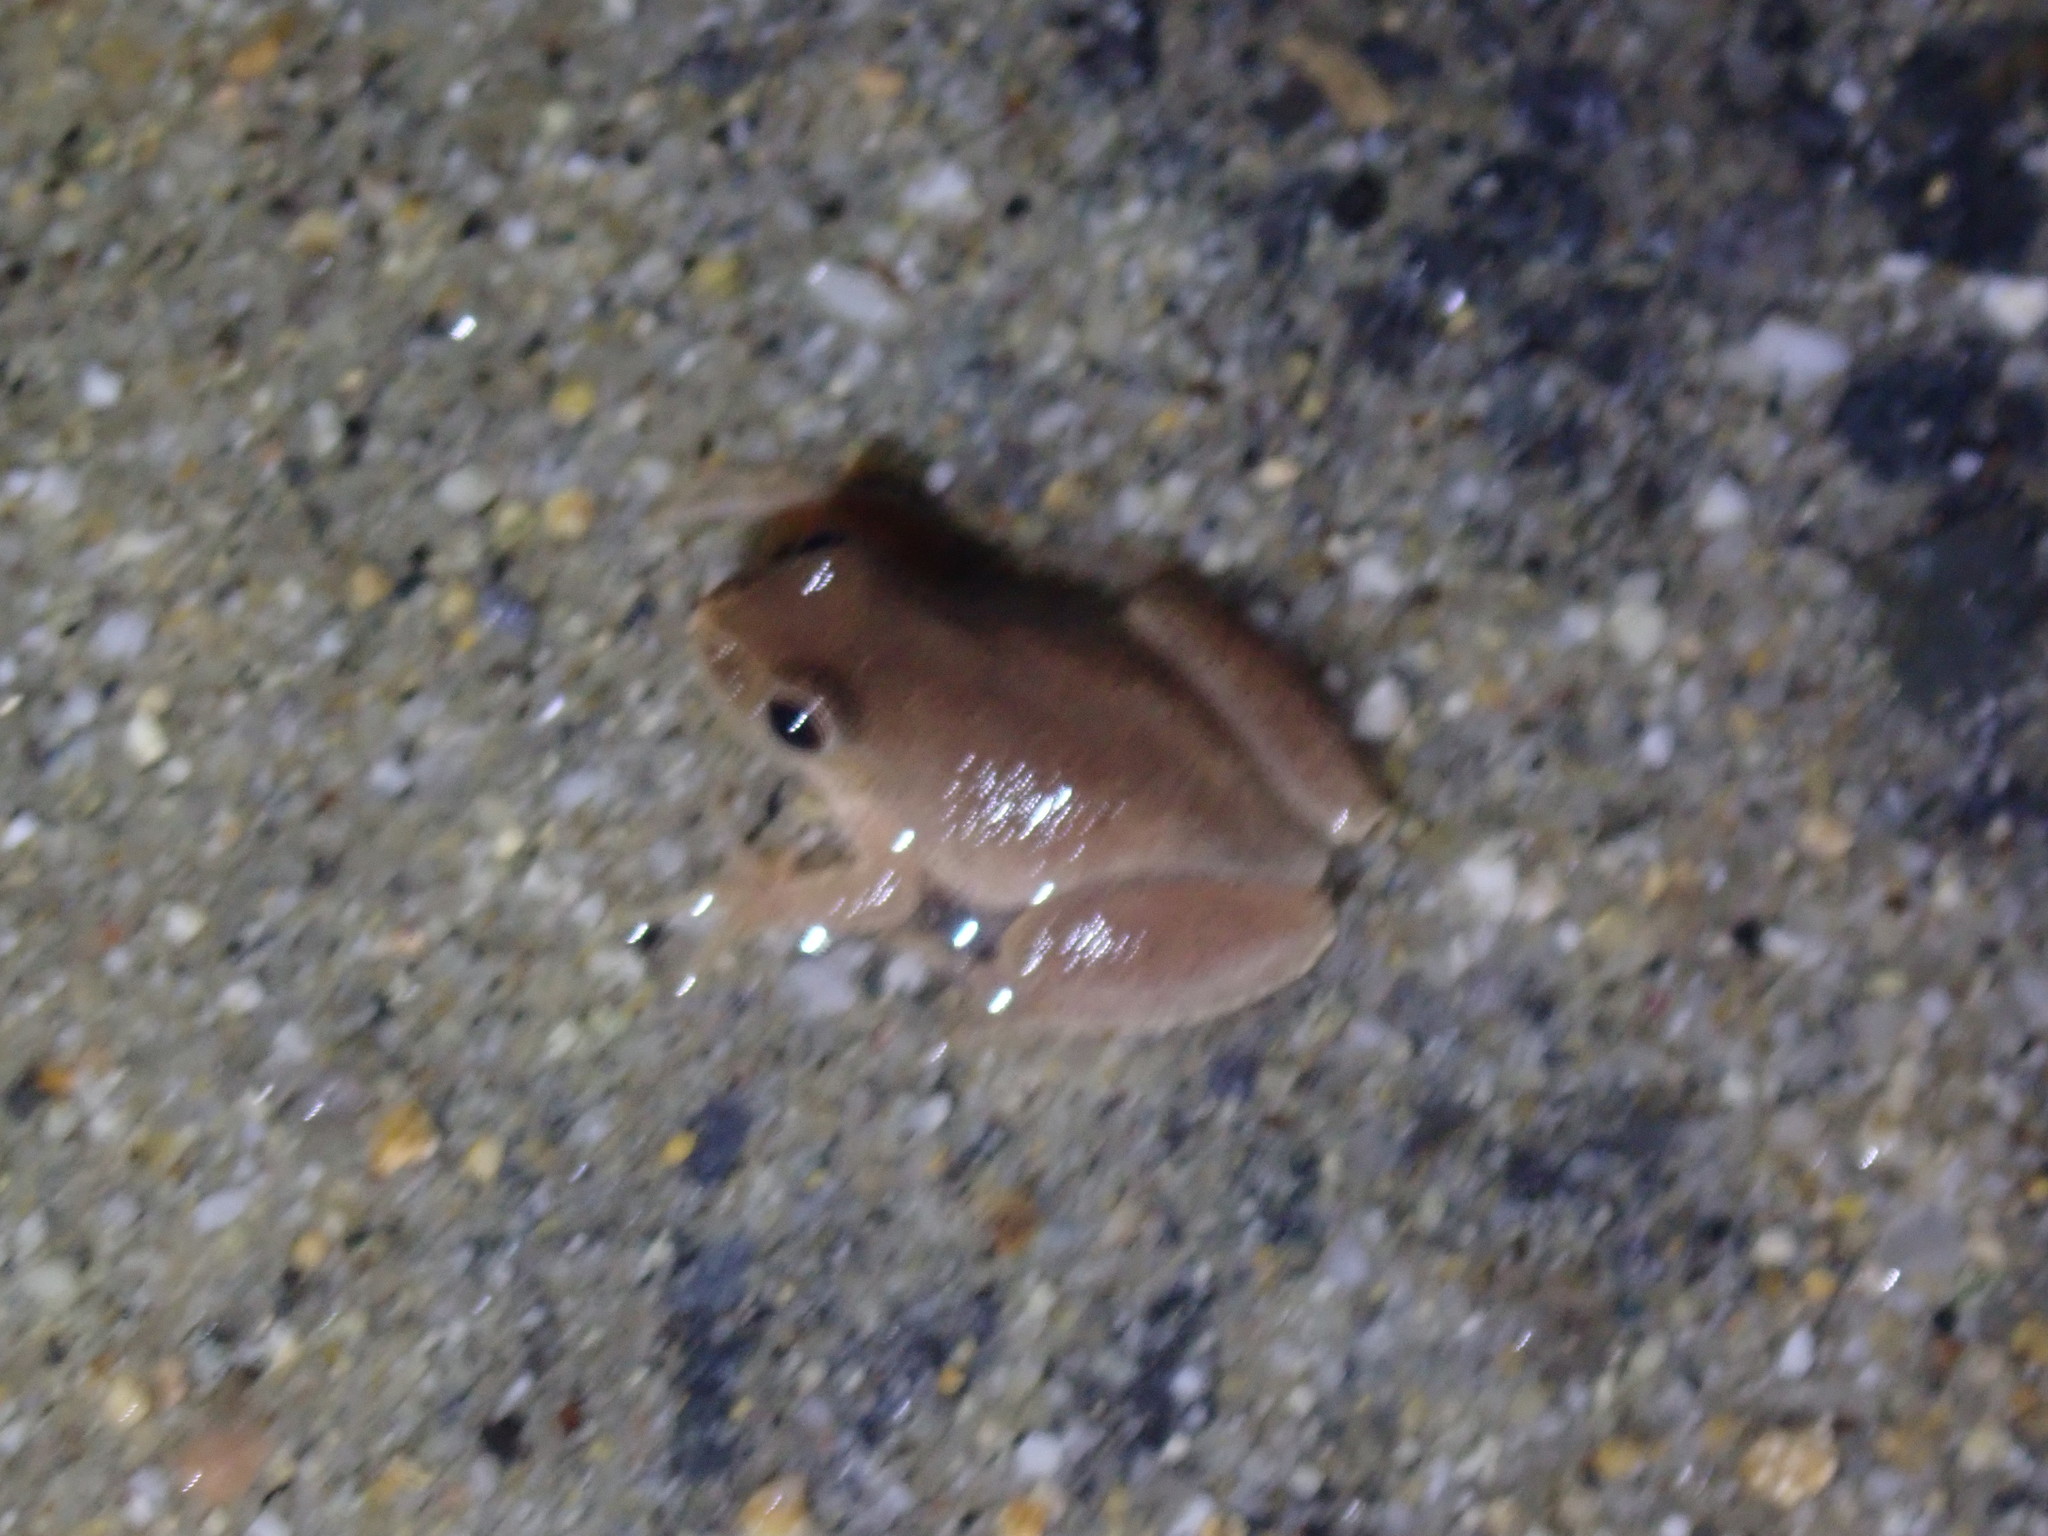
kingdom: Animalia
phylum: Chordata
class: Amphibia
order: Anura
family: Hylidae
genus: Pseudacris
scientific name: Pseudacris crucifer
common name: Spring peeper
